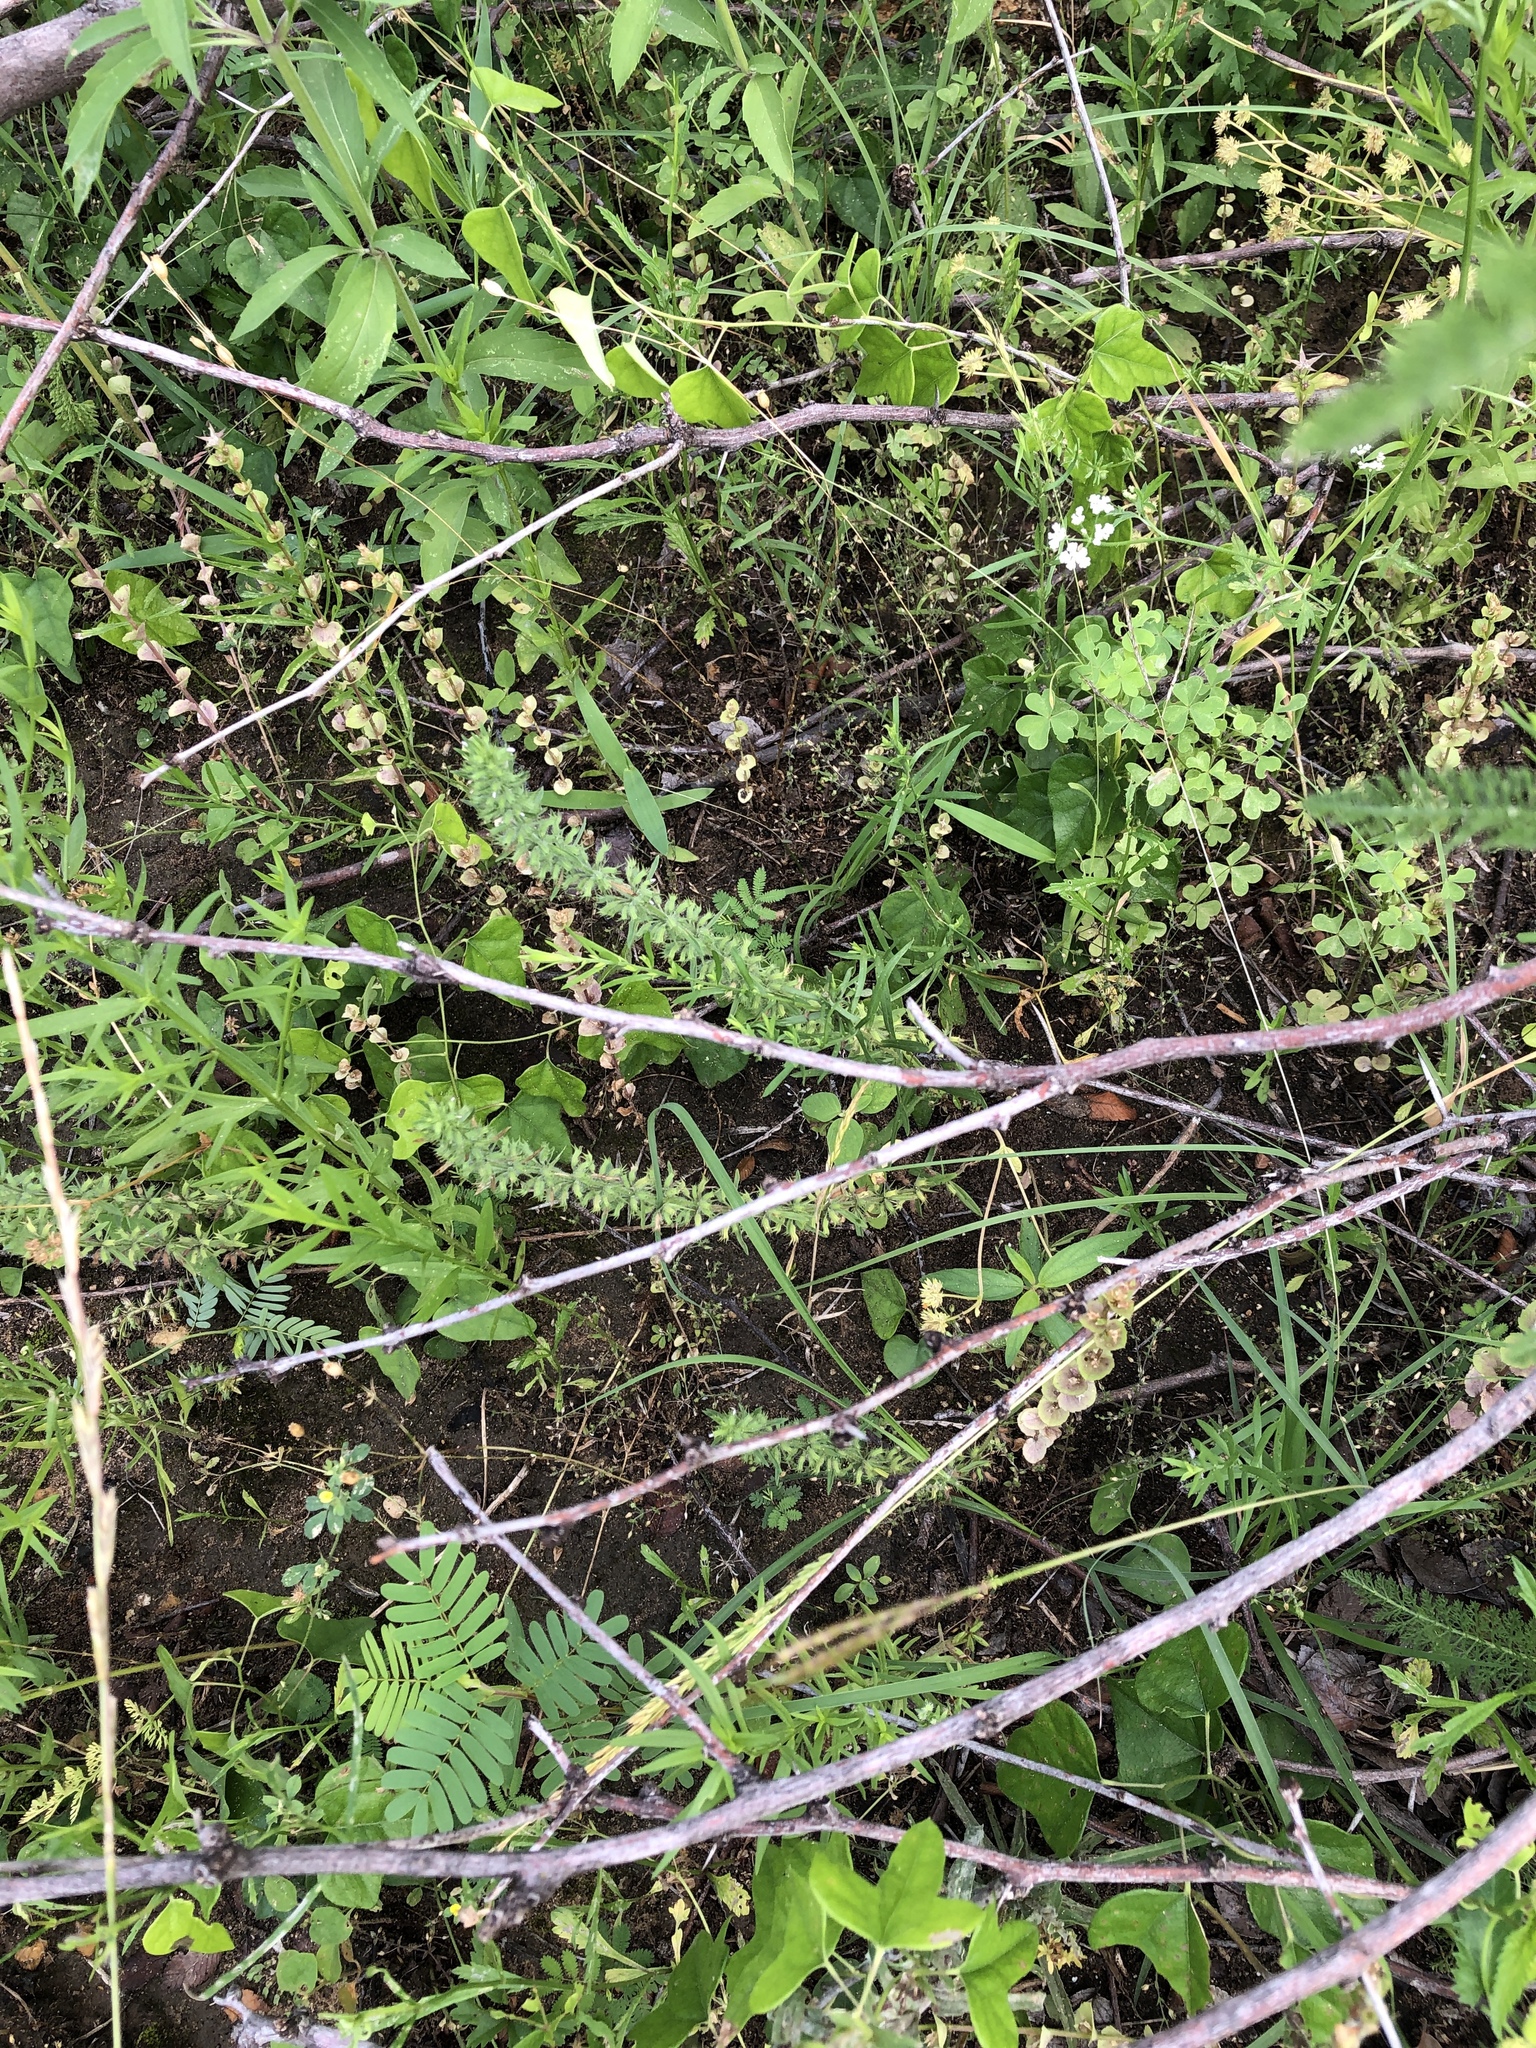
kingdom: Plantae
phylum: Tracheophyta
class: Magnoliopsida
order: Lamiales
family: Lamiaceae
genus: Hedeoma
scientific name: Hedeoma hispida
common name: Mock pennyroyal
